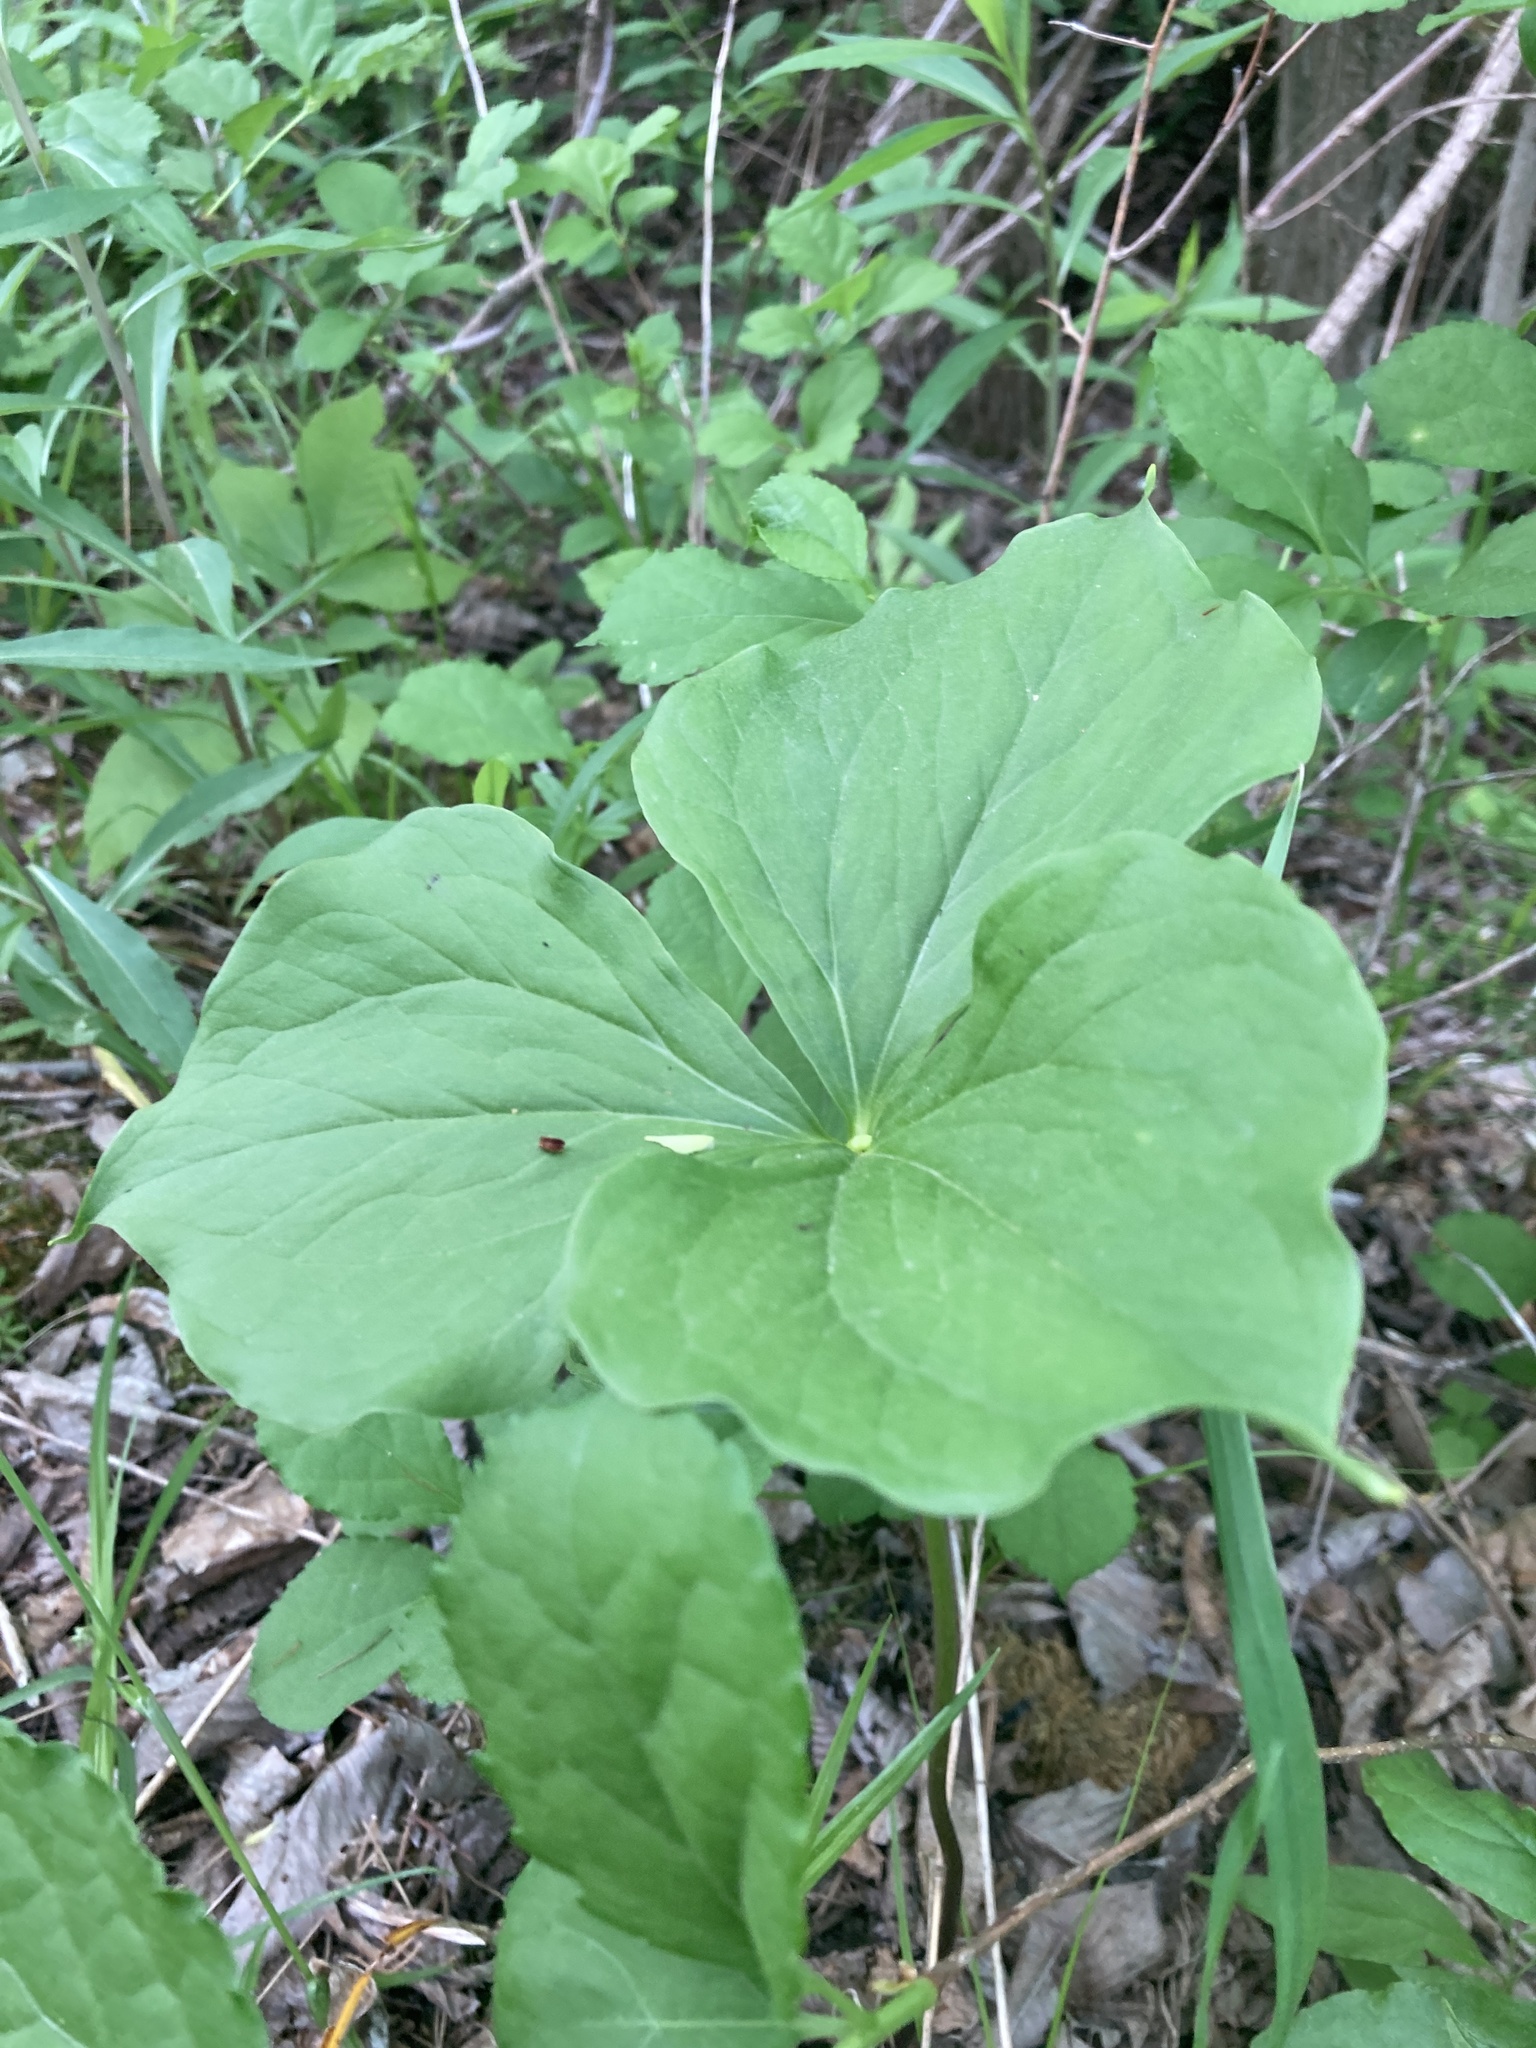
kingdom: Plantae
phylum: Tracheophyta
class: Liliopsida
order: Liliales
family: Melanthiaceae
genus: Trillium
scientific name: Trillium cernuum
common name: Nodding trillium
